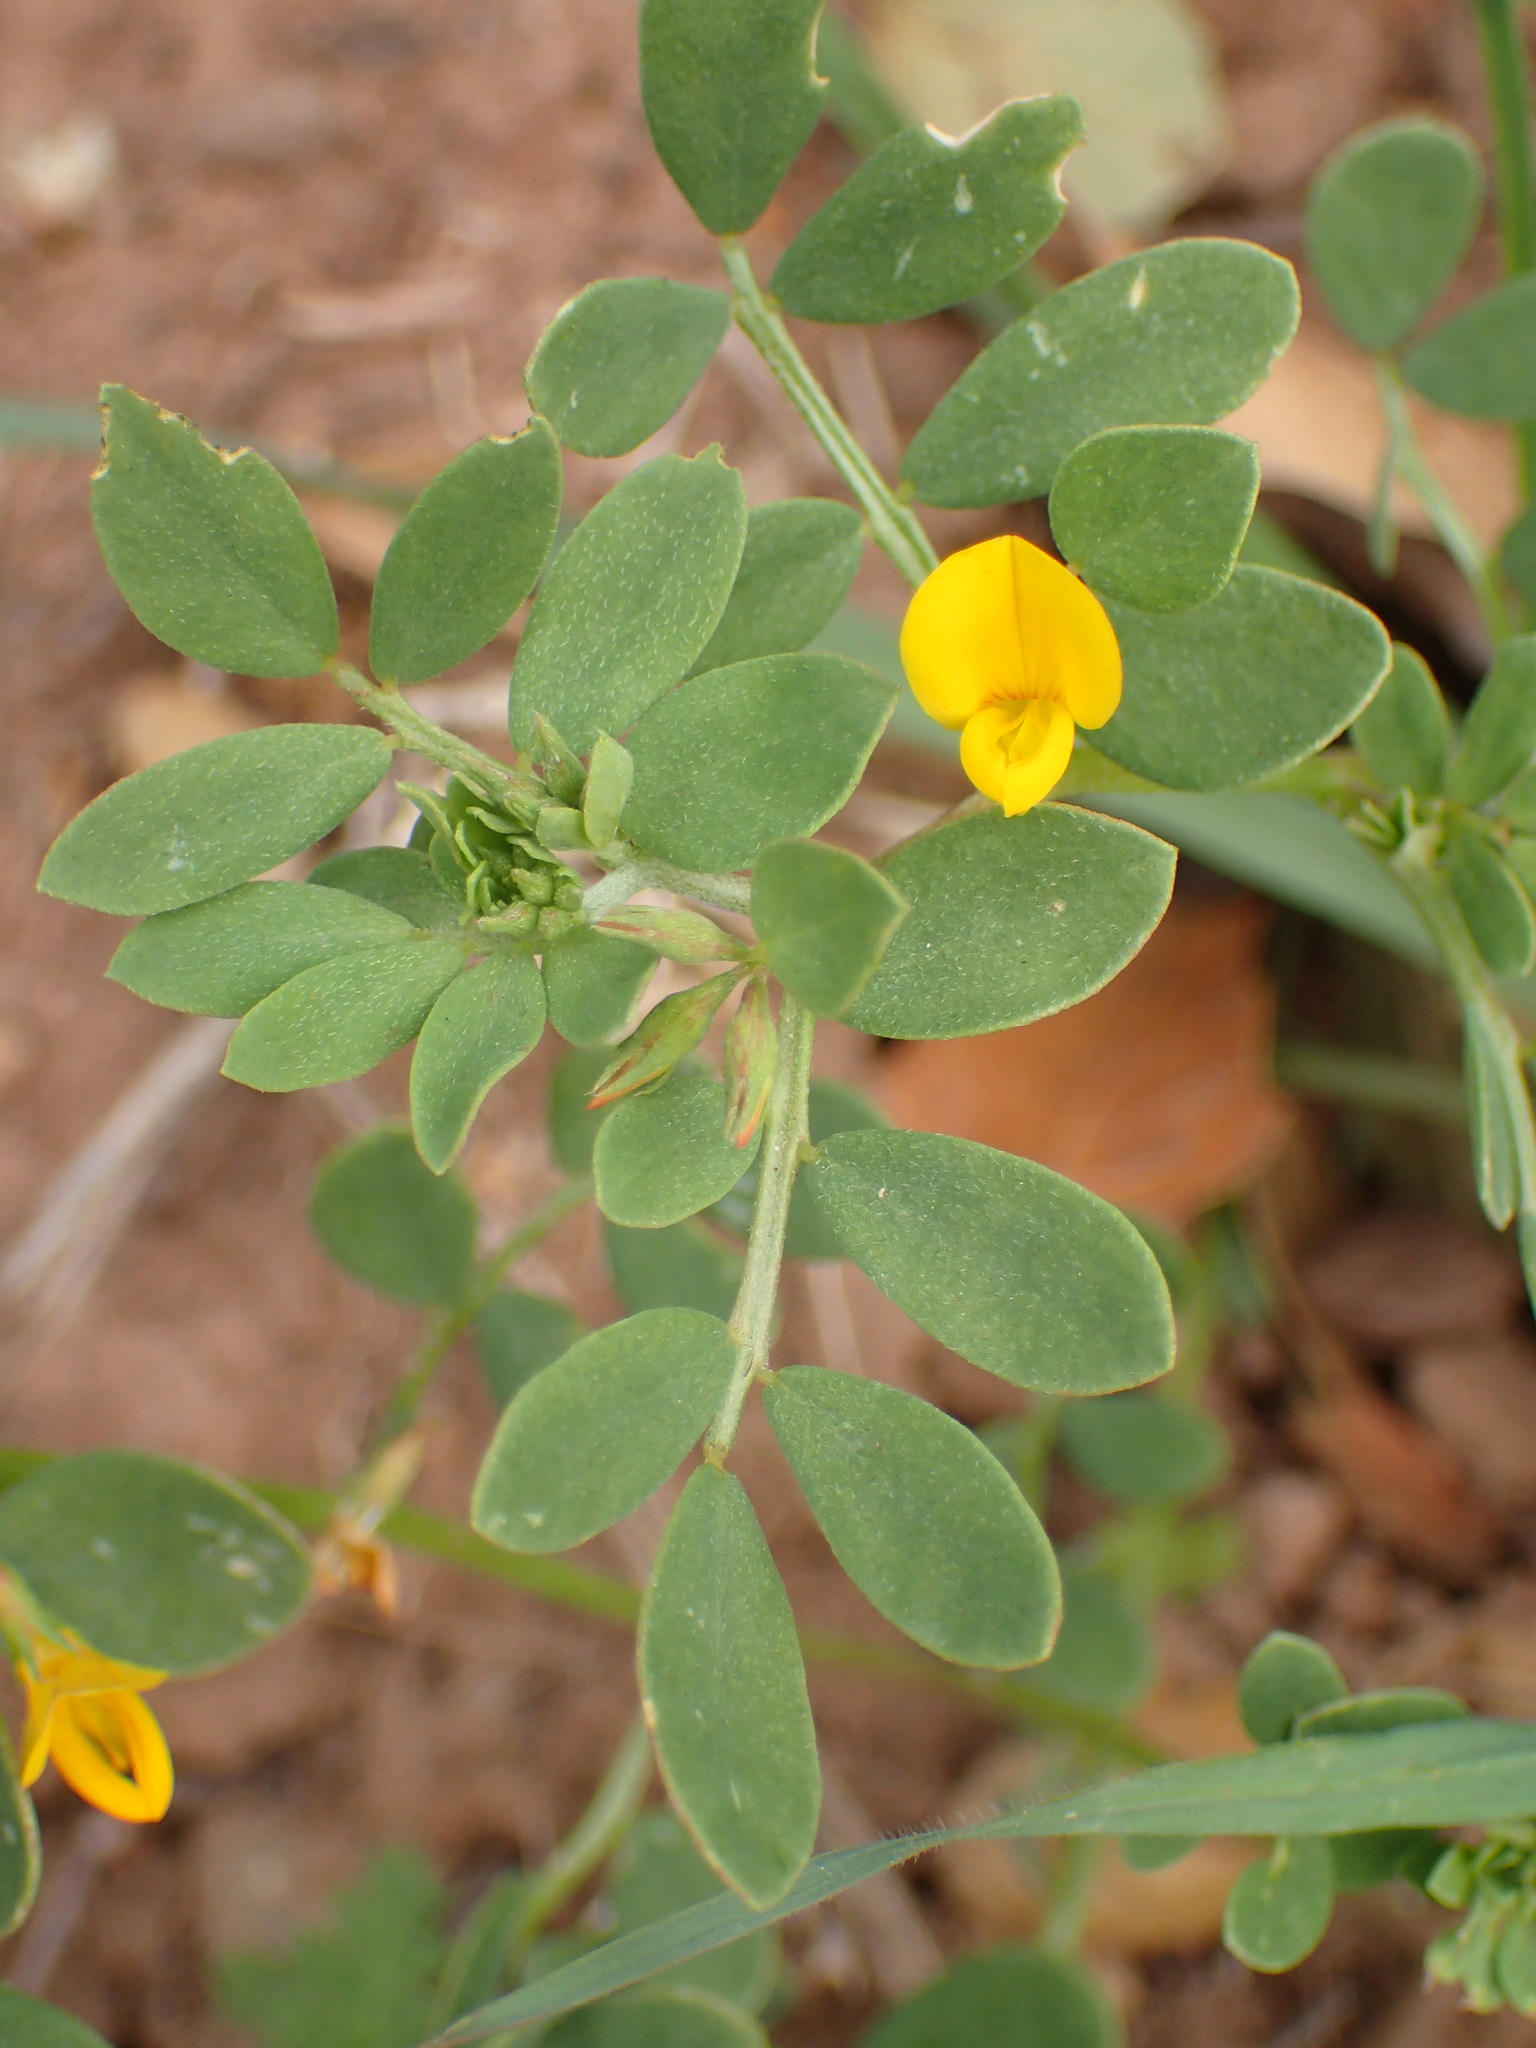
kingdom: Plantae
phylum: Tracheophyta
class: Magnoliopsida
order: Fabales
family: Fabaceae
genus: Acmispon
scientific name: Acmispon maritimus
